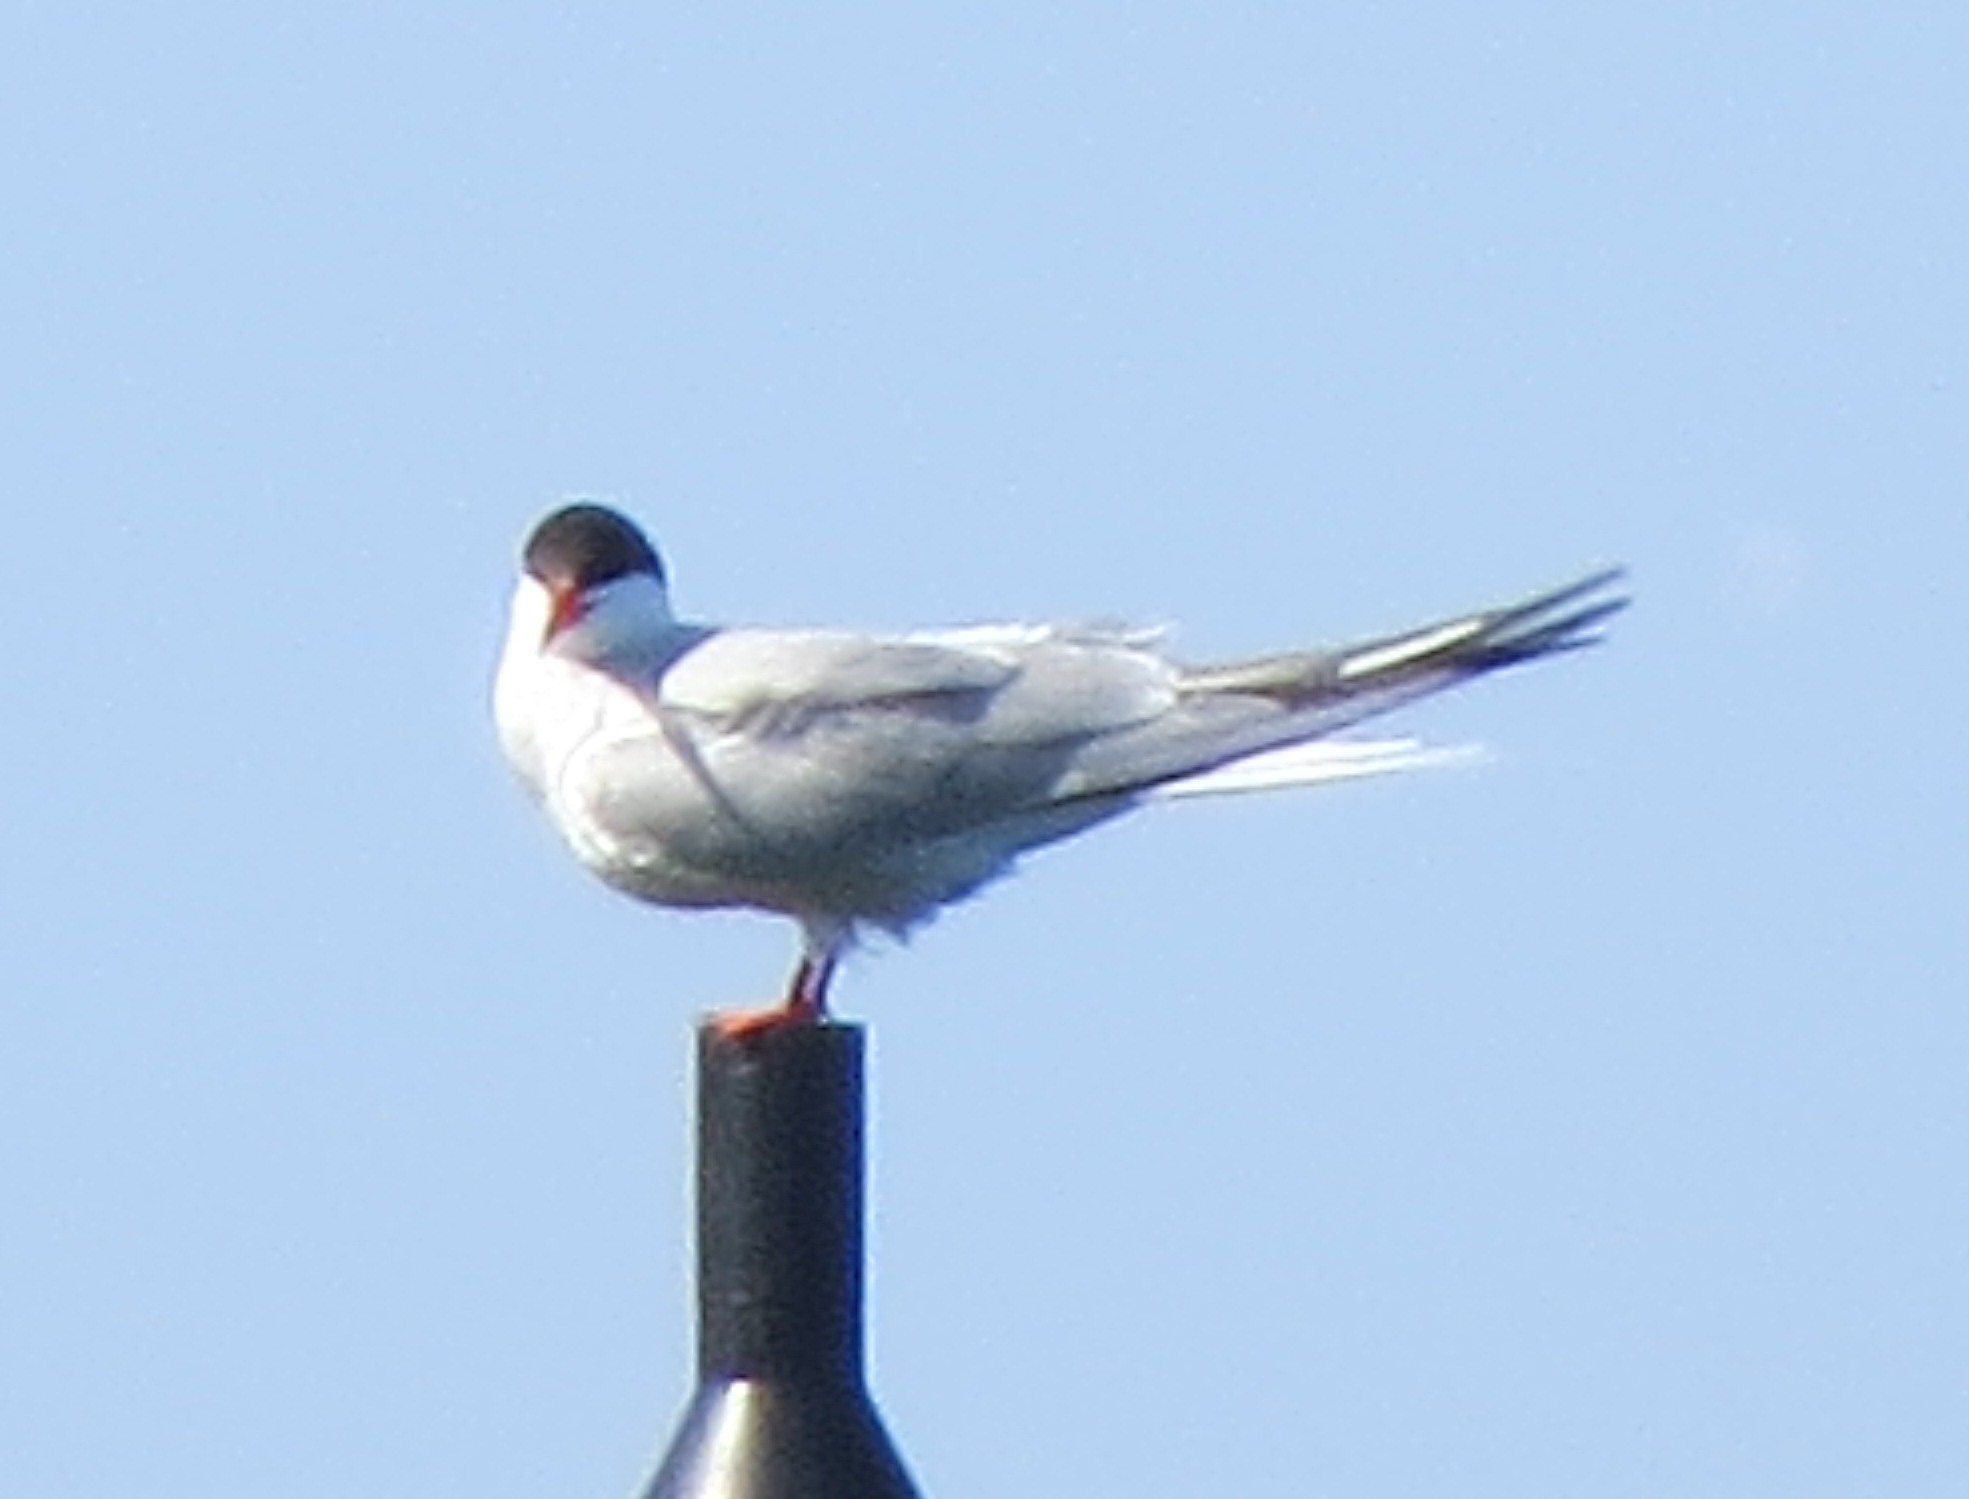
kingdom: Animalia
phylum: Chordata
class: Aves
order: Charadriiformes
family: Laridae
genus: Sterna
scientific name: Sterna hirundo
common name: Common tern
